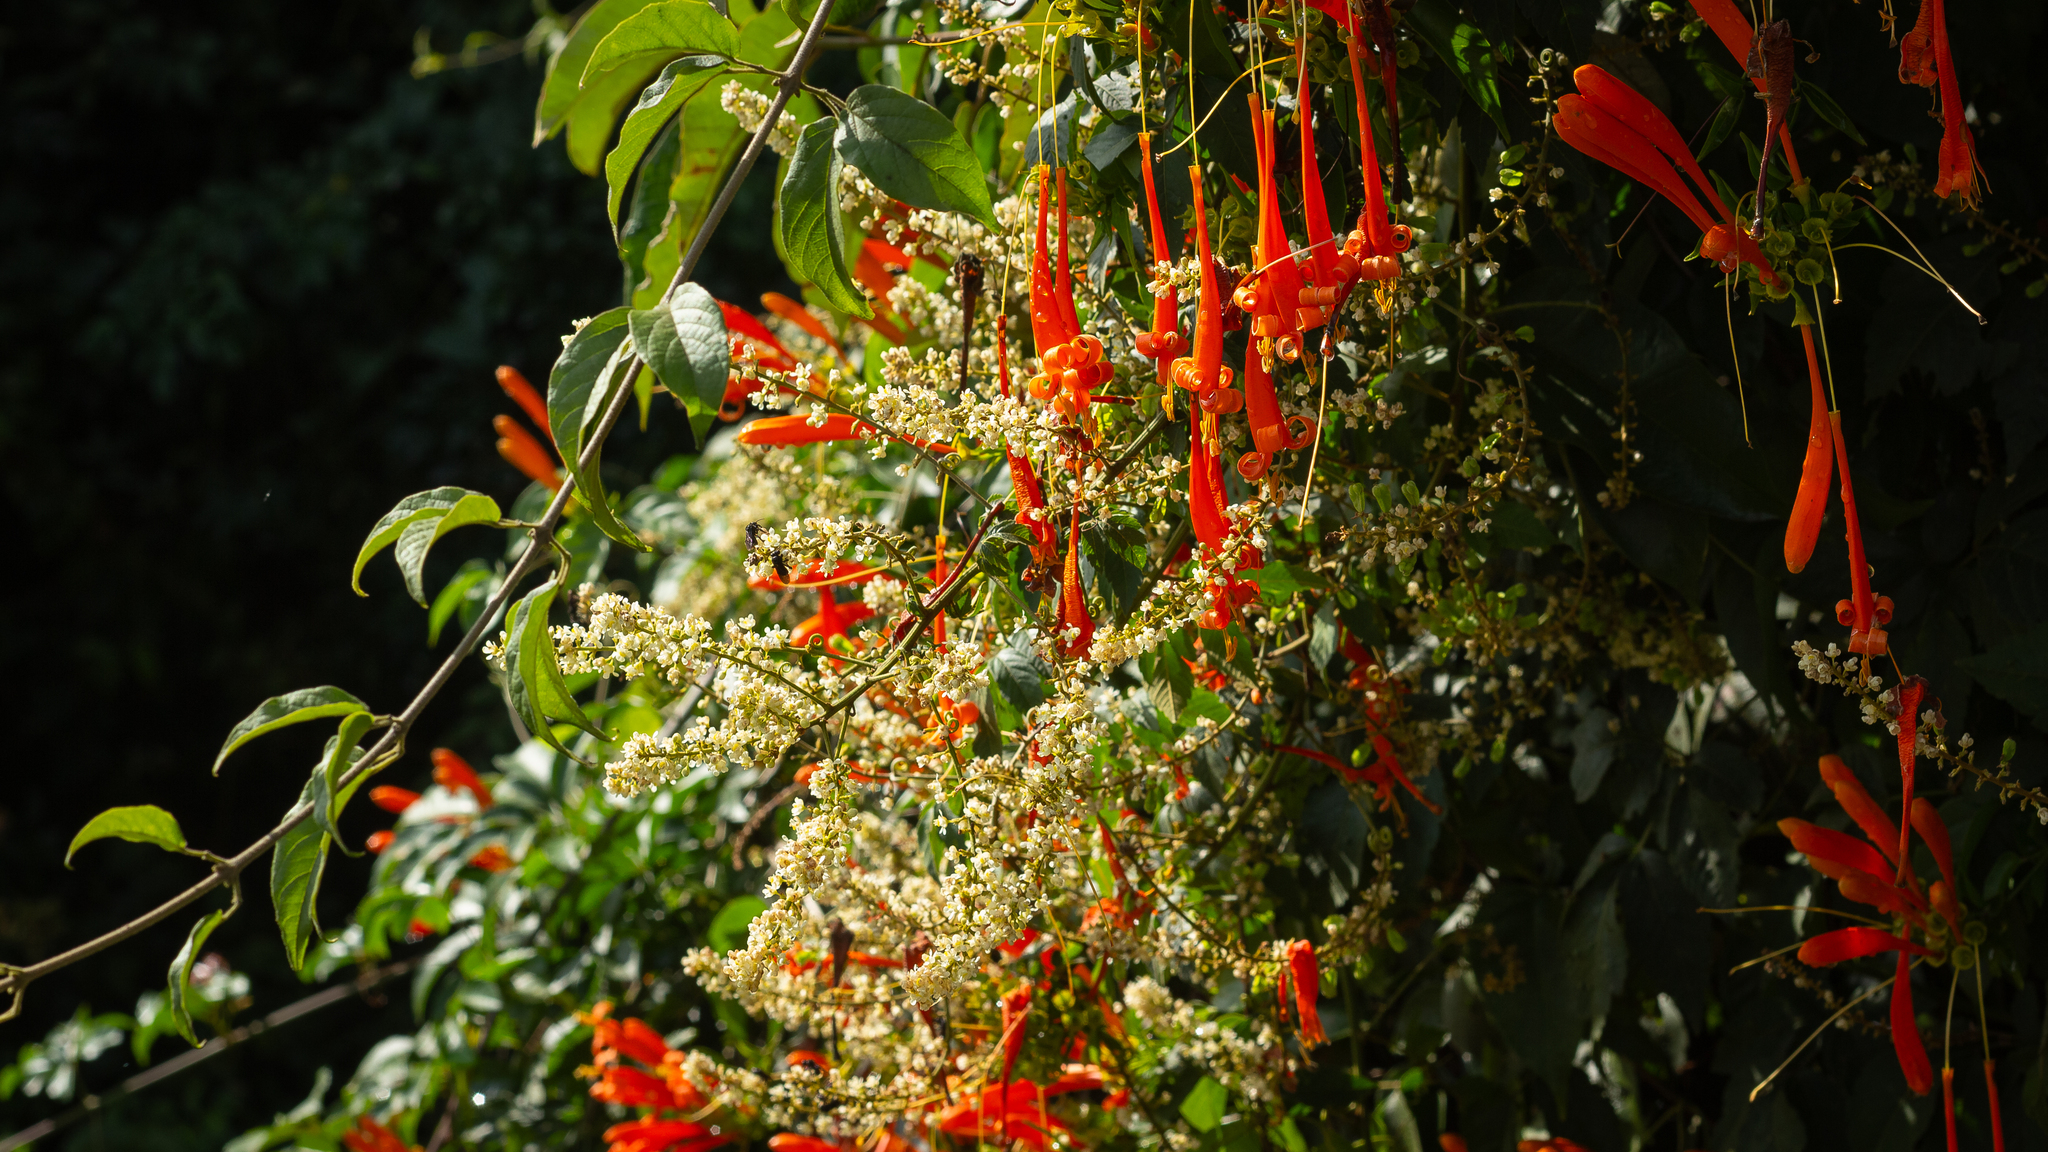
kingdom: Plantae
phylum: Tracheophyta
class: Magnoliopsida
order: Lamiales
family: Bignoniaceae
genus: Pyrostegia
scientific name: Pyrostegia venusta
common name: Flamevine
